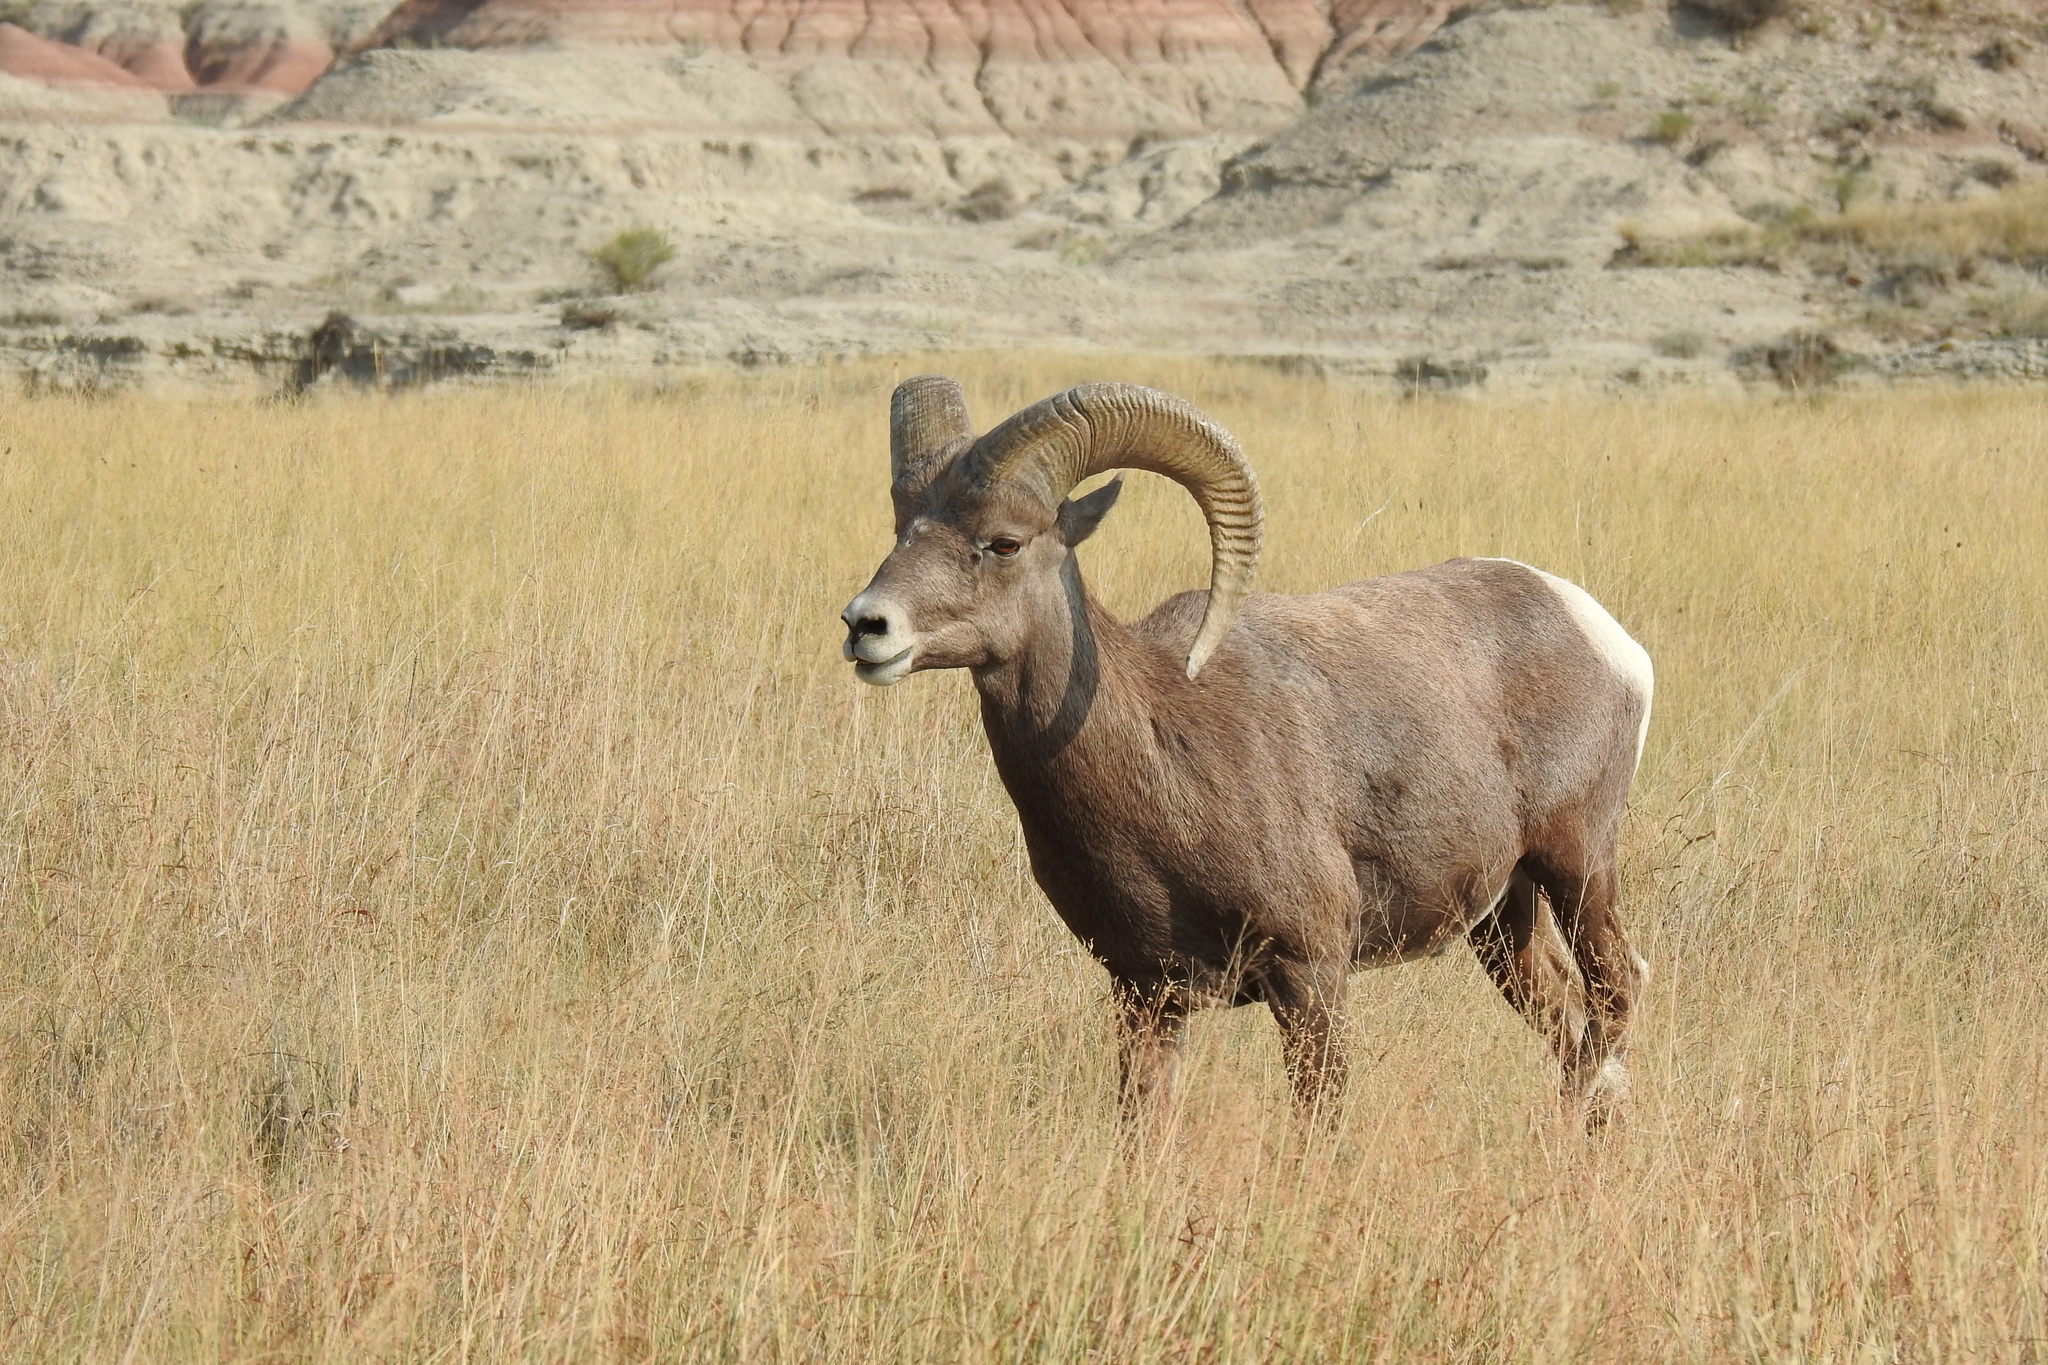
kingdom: Animalia
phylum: Chordata
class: Mammalia
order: Artiodactyla
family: Bovidae
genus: Ovis
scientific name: Ovis canadensis
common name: Bighorn sheep
